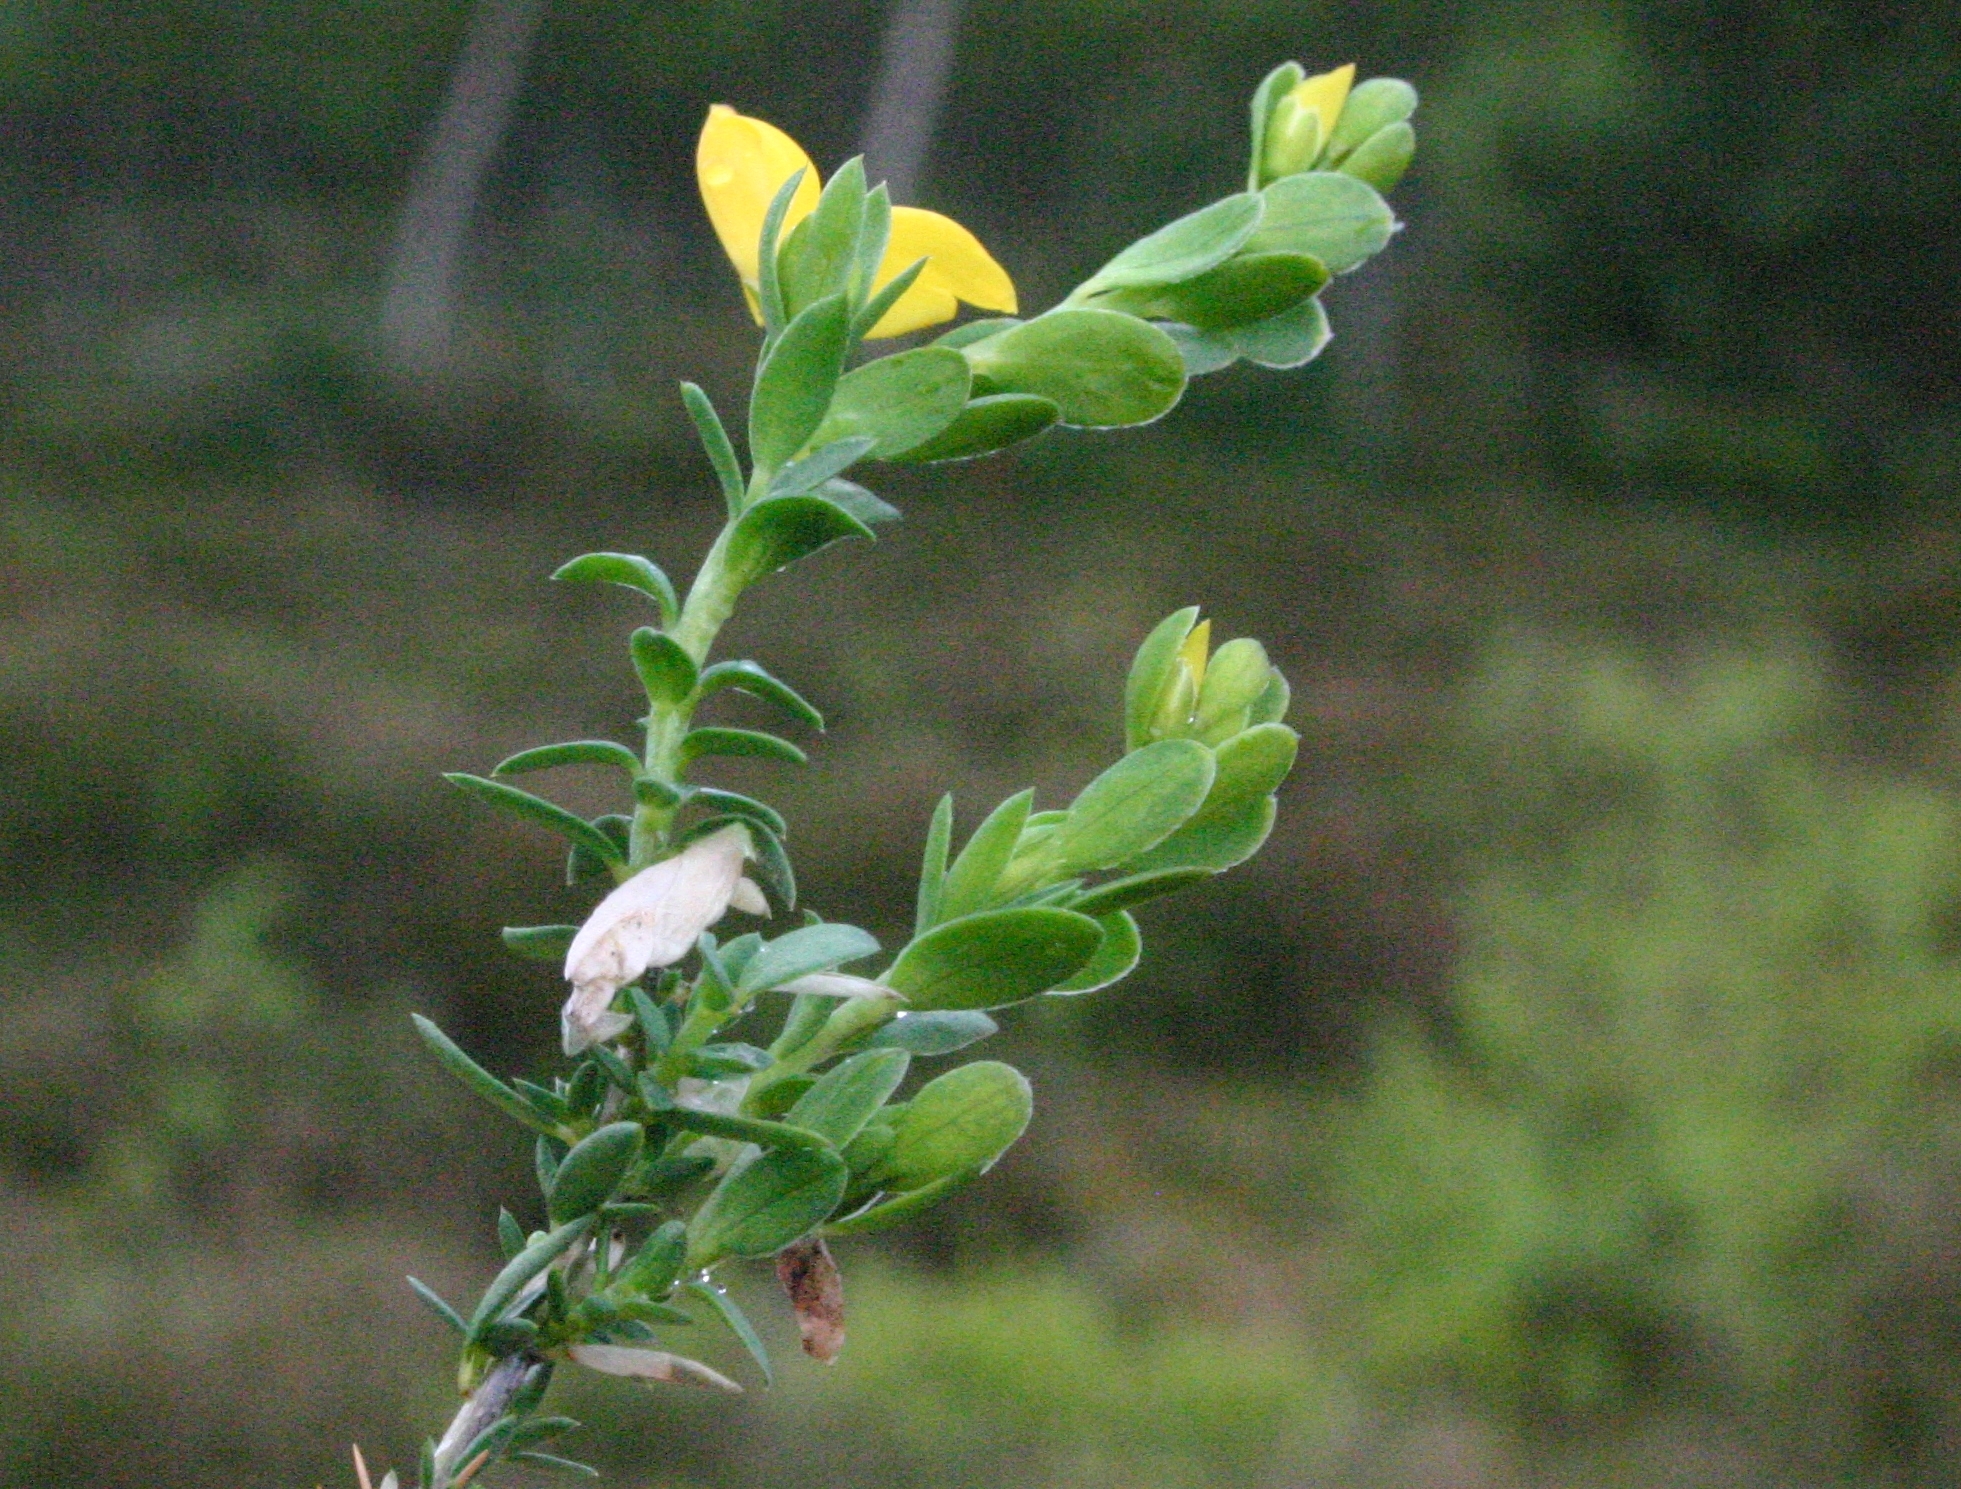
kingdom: Animalia
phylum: Arthropoda
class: Insecta
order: Lepidoptera
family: Coleophoridae
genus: Coleophora
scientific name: Coleophora genistae
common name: Petty-whin case-bearer
